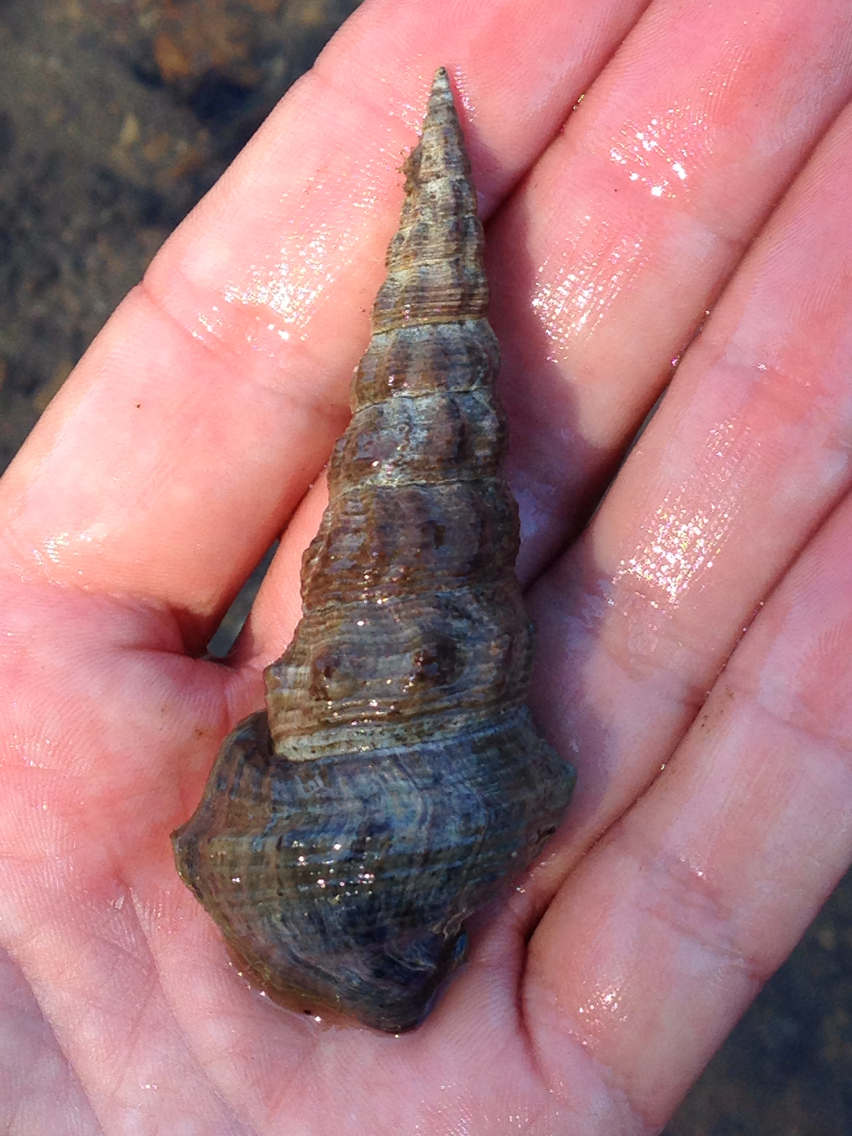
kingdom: Animalia
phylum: Mollusca
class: Gastropoda
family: Batillariidae
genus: Pyrazus
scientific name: Pyrazus ebeninus
